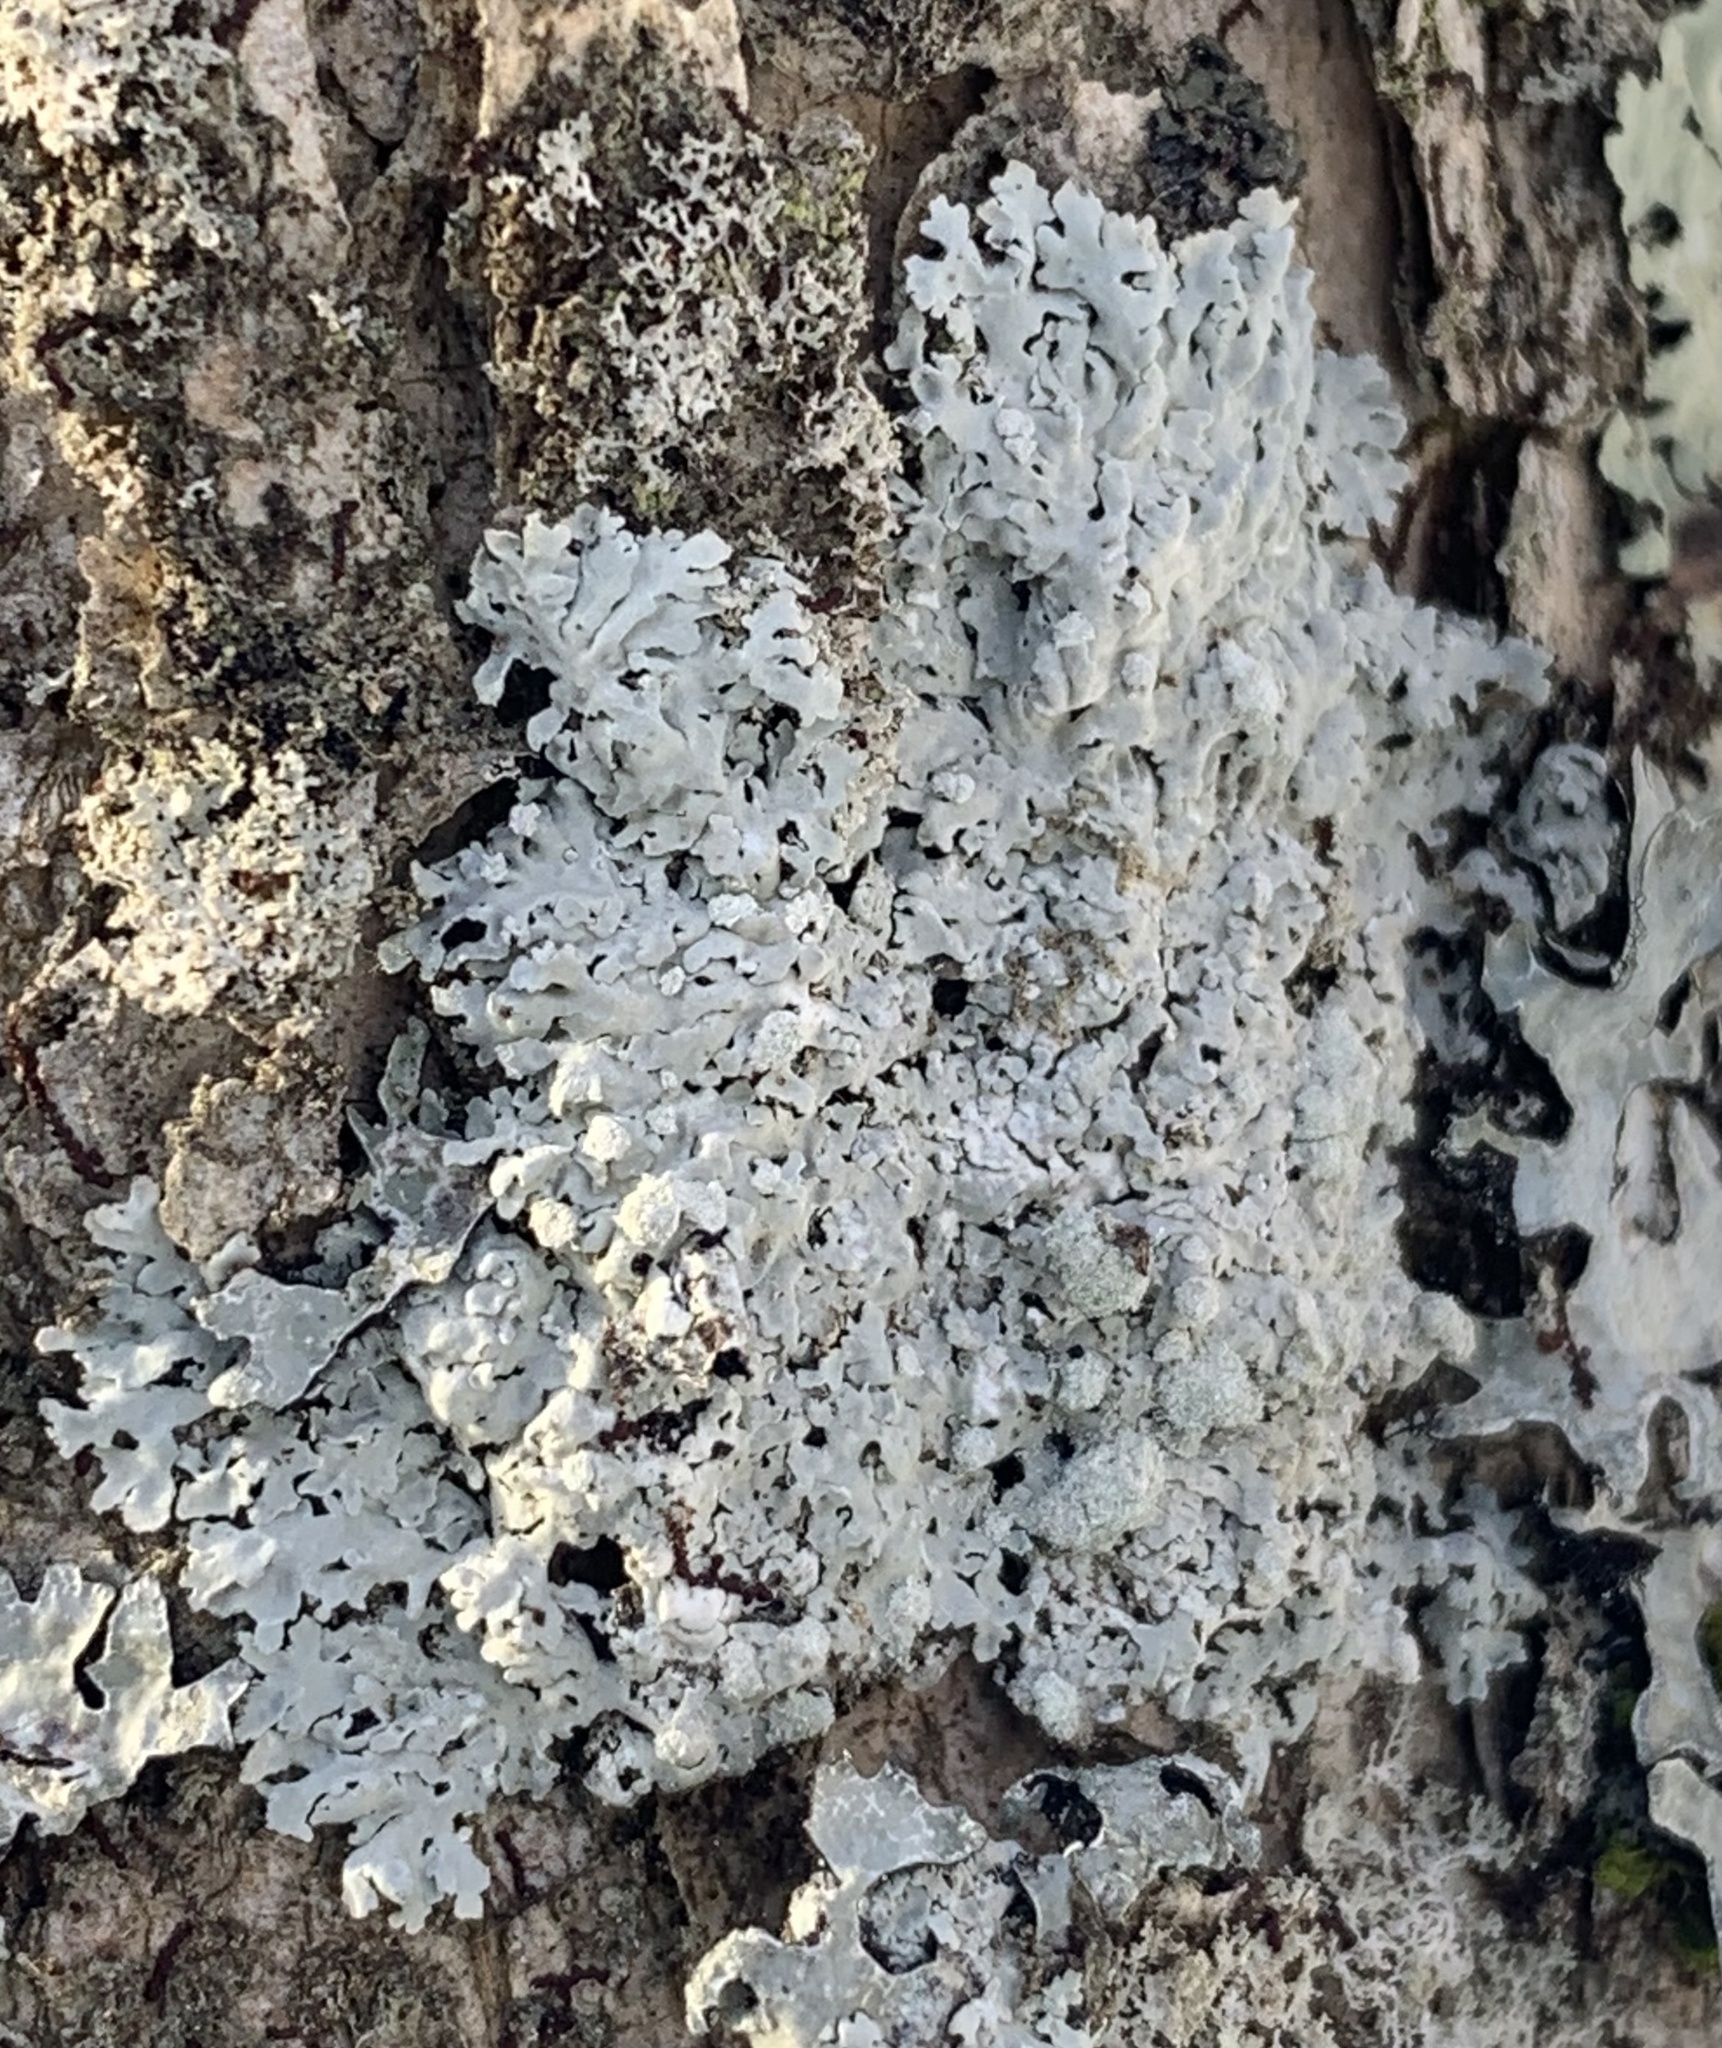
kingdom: Fungi
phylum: Ascomycota
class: Lecanoromycetes
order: Caliciales
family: Physciaceae
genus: Physcia
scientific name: Physcia americana
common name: American rosette lichen
